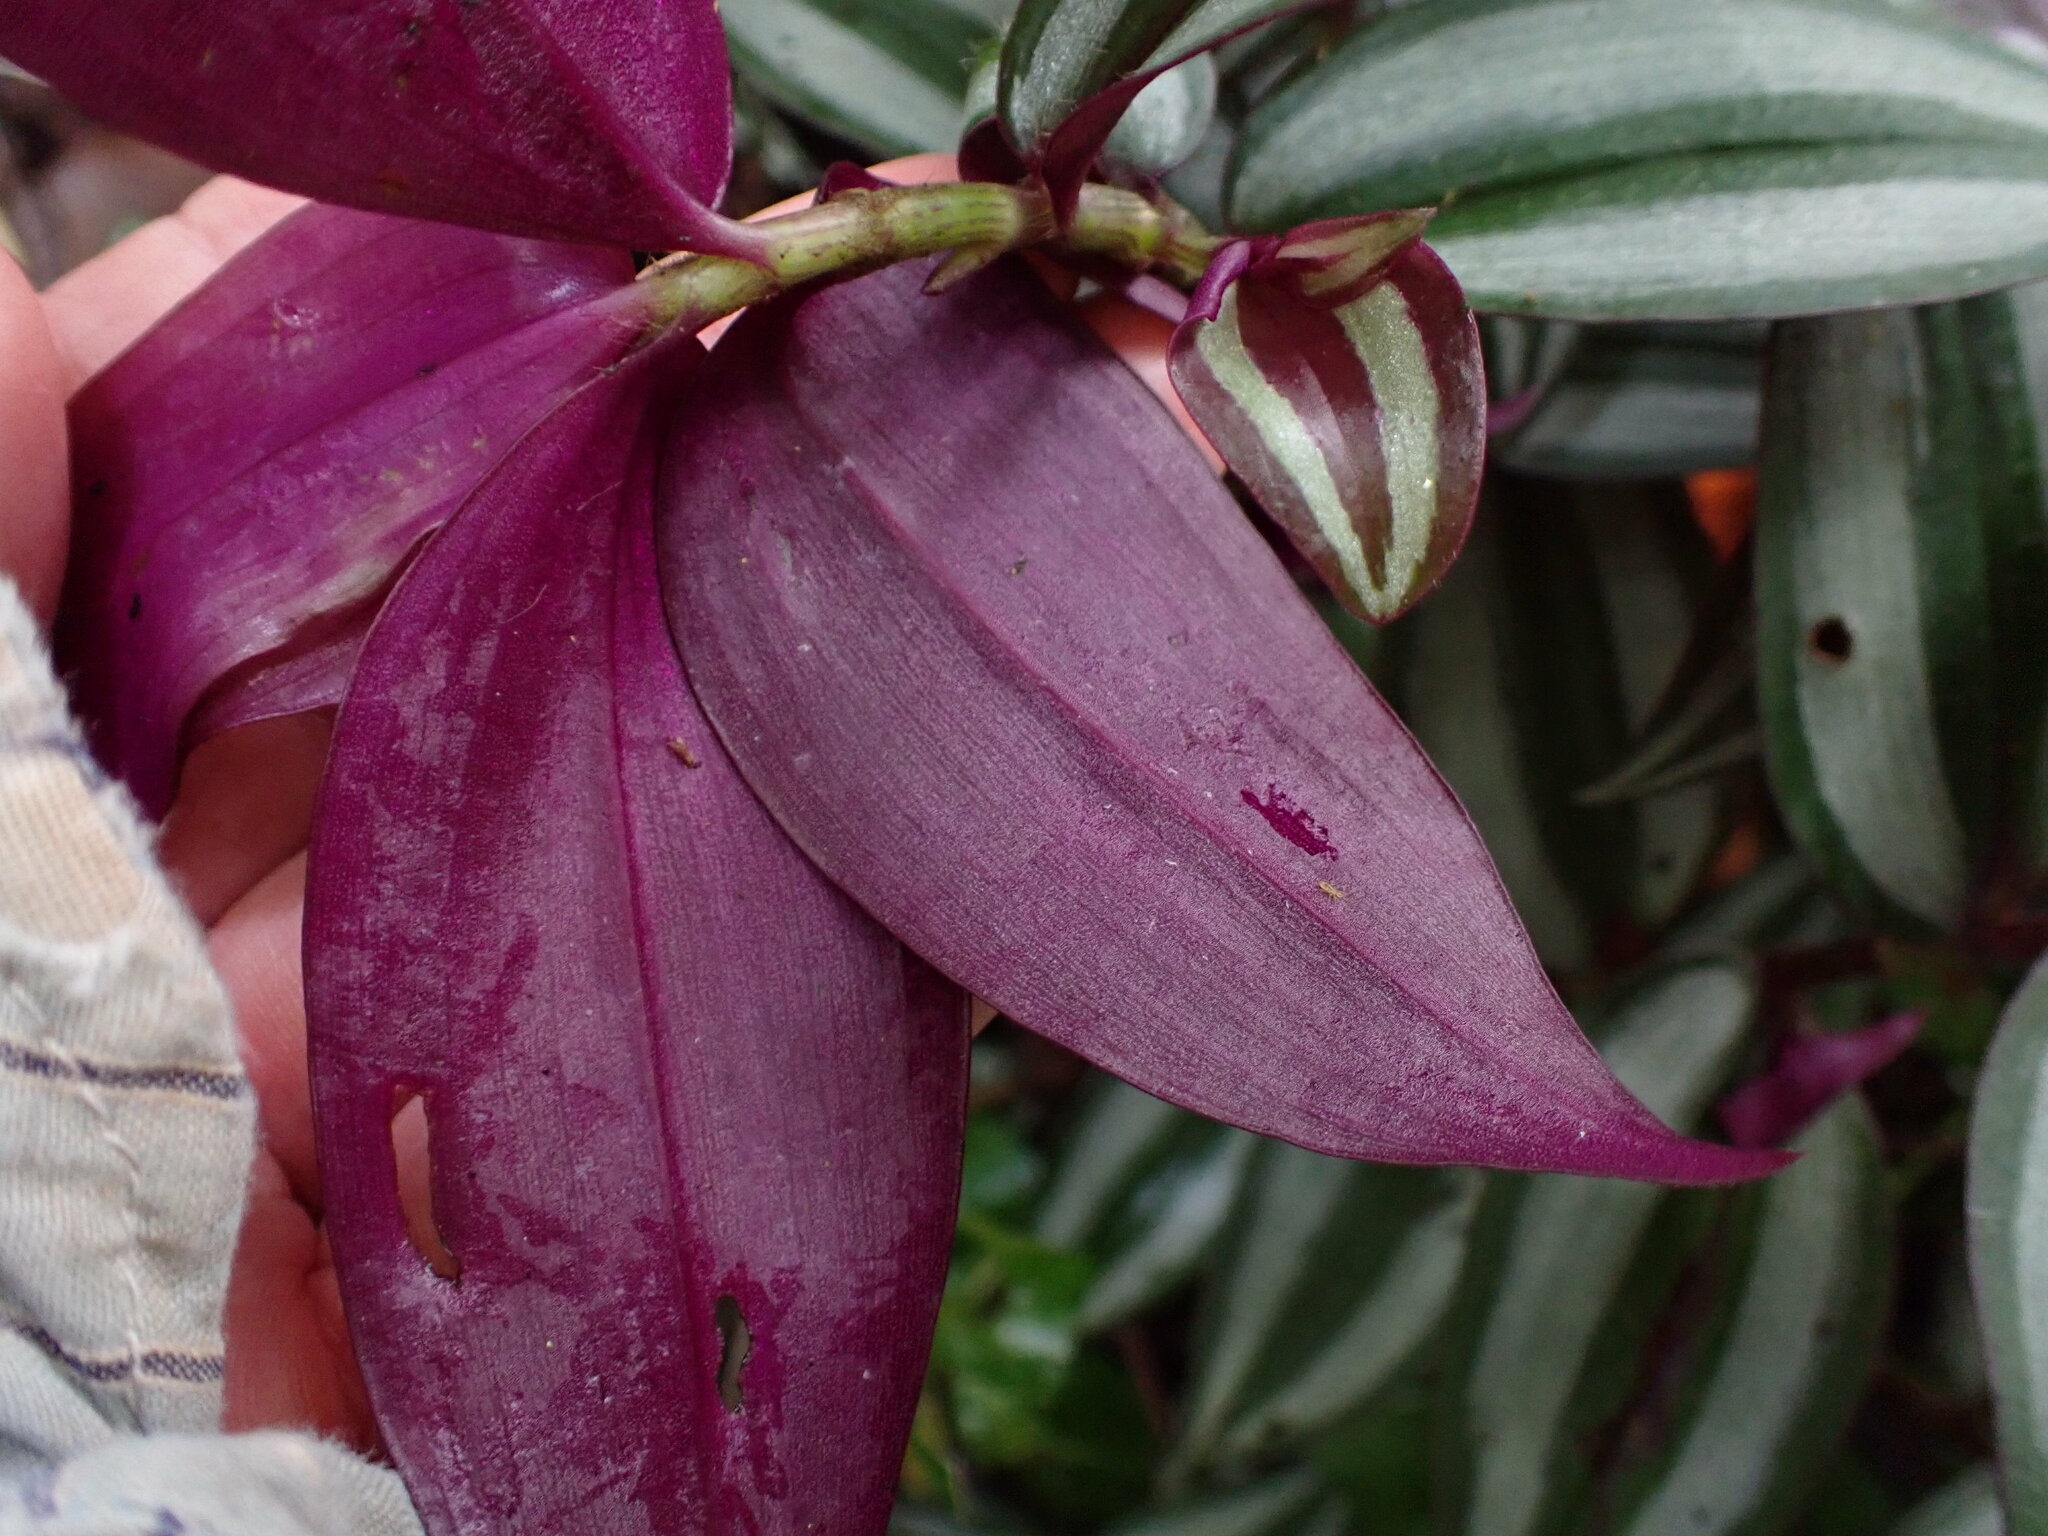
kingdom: Plantae
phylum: Tracheophyta
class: Liliopsida
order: Commelinales
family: Commelinaceae
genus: Tradescantia
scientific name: Tradescantia zebrina
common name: Inchplant
